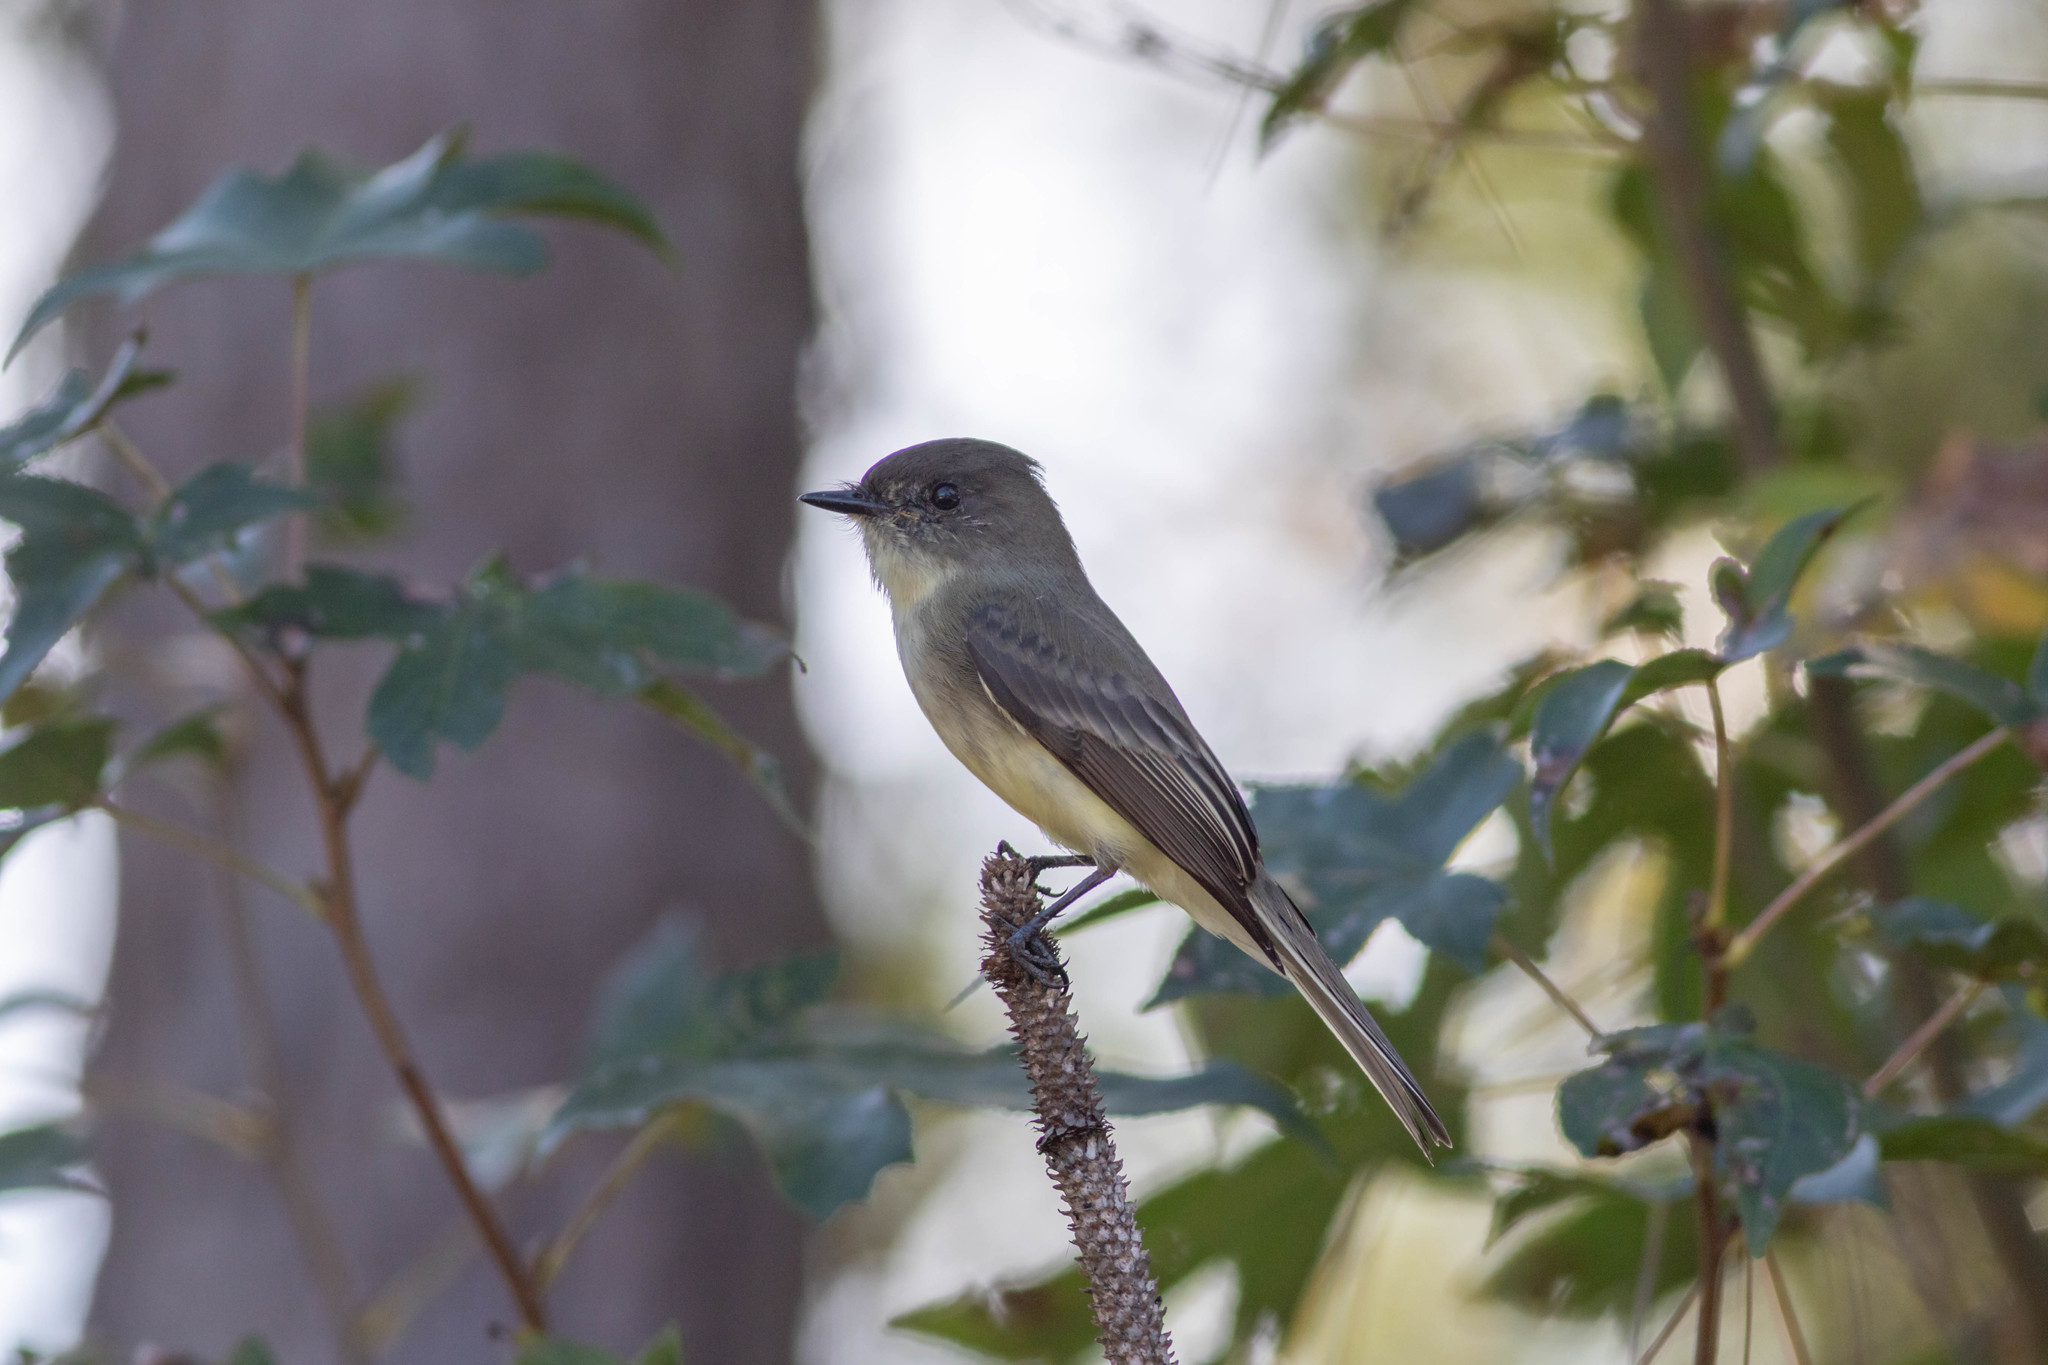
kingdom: Animalia
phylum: Chordata
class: Aves
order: Passeriformes
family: Tyrannidae
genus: Sayornis
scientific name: Sayornis phoebe
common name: Eastern phoebe
